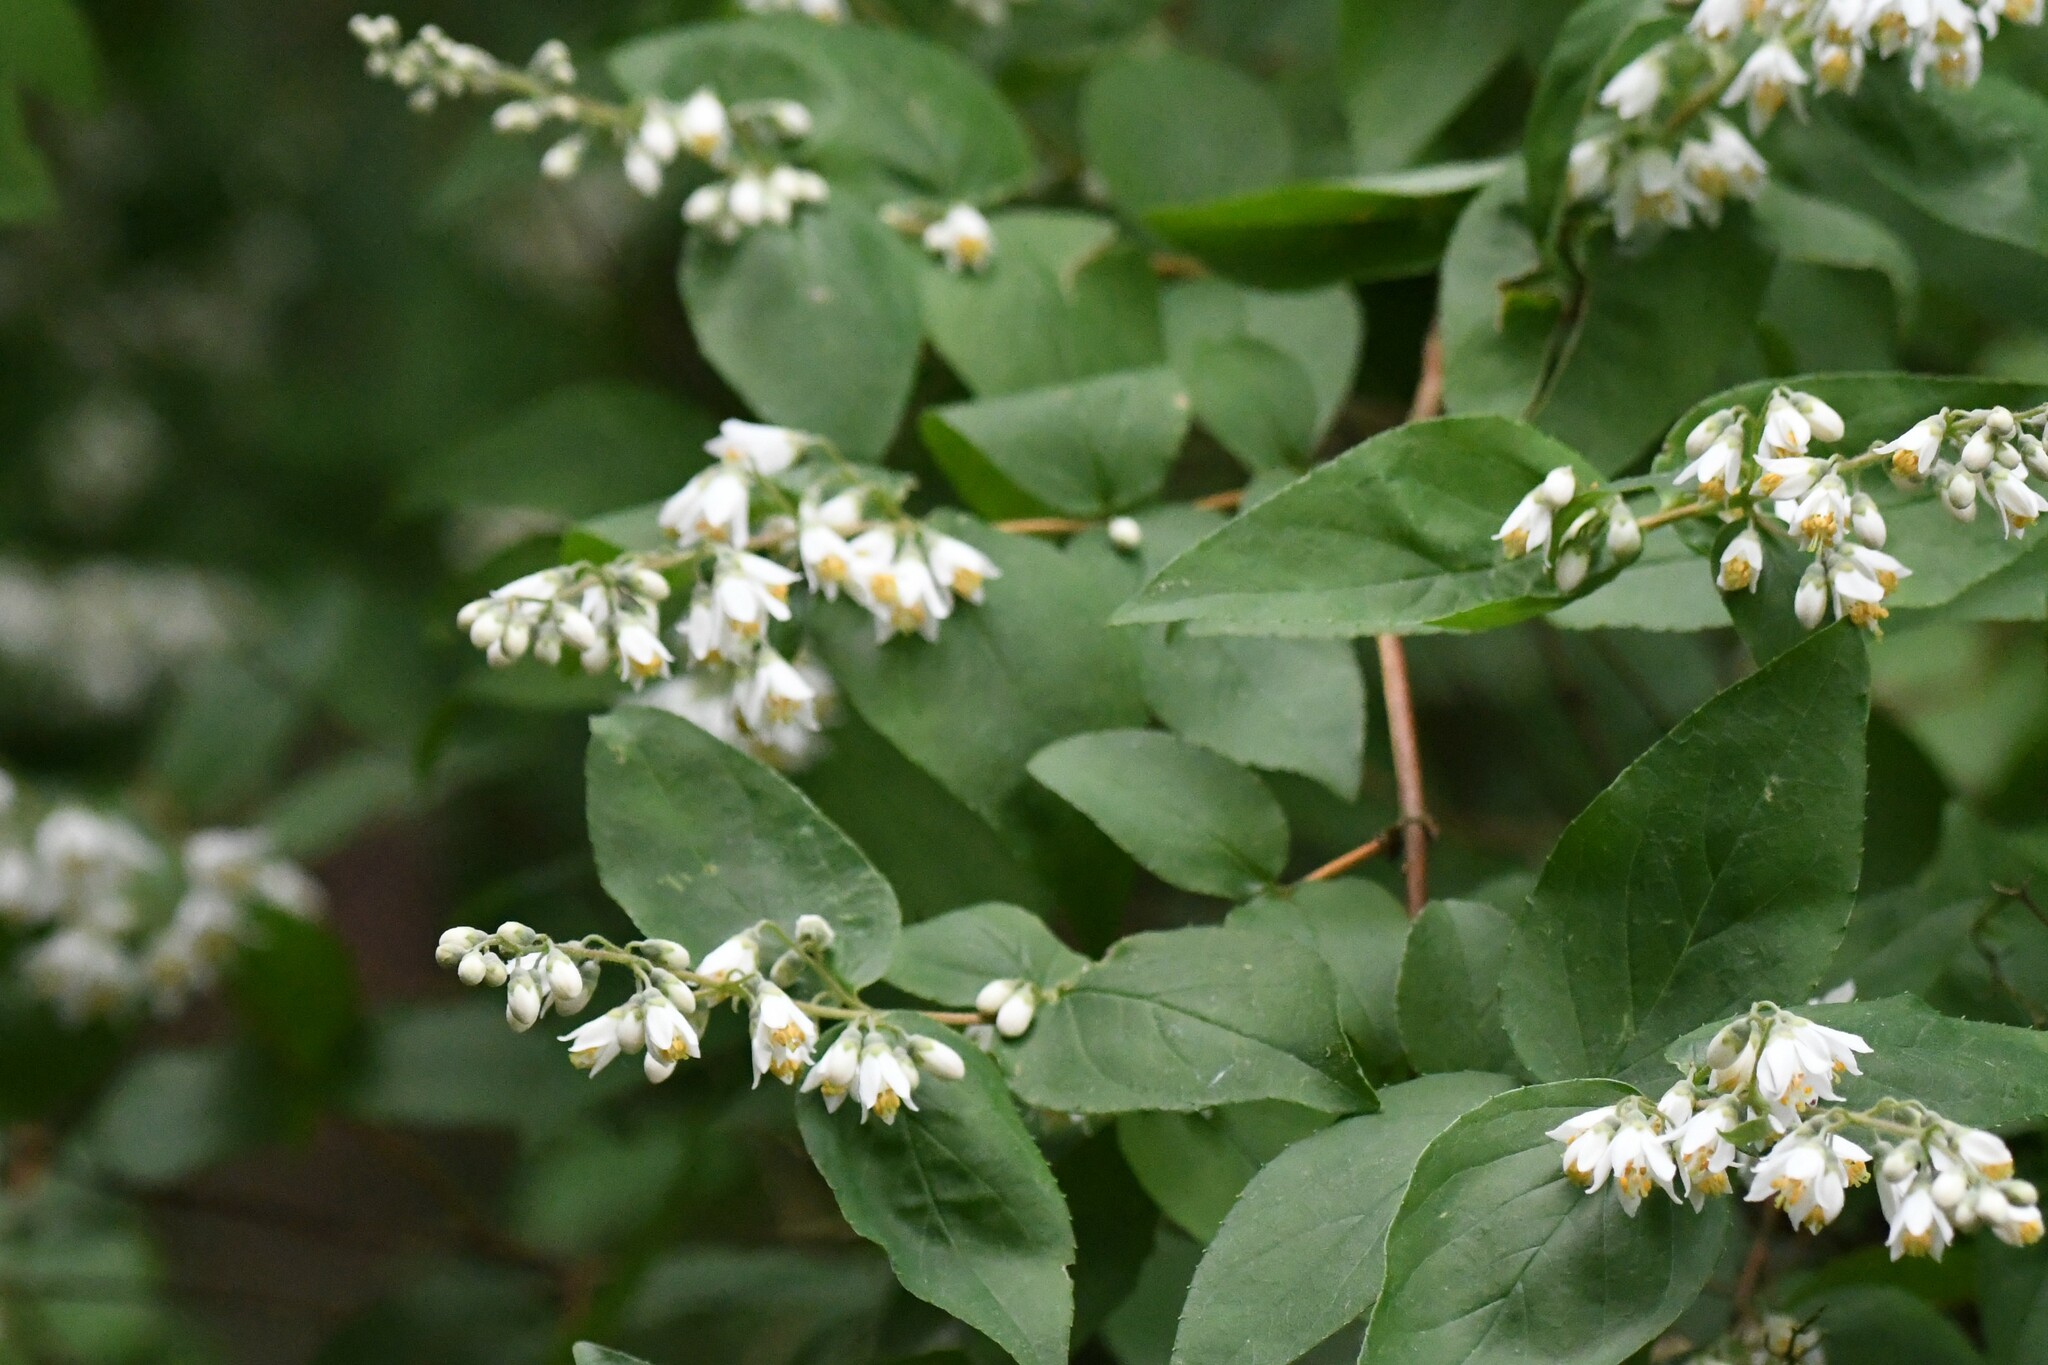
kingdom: Plantae
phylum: Tracheophyta
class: Magnoliopsida
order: Cornales
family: Hydrangeaceae
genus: Deutzia
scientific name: Deutzia crenata
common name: Deutzia
